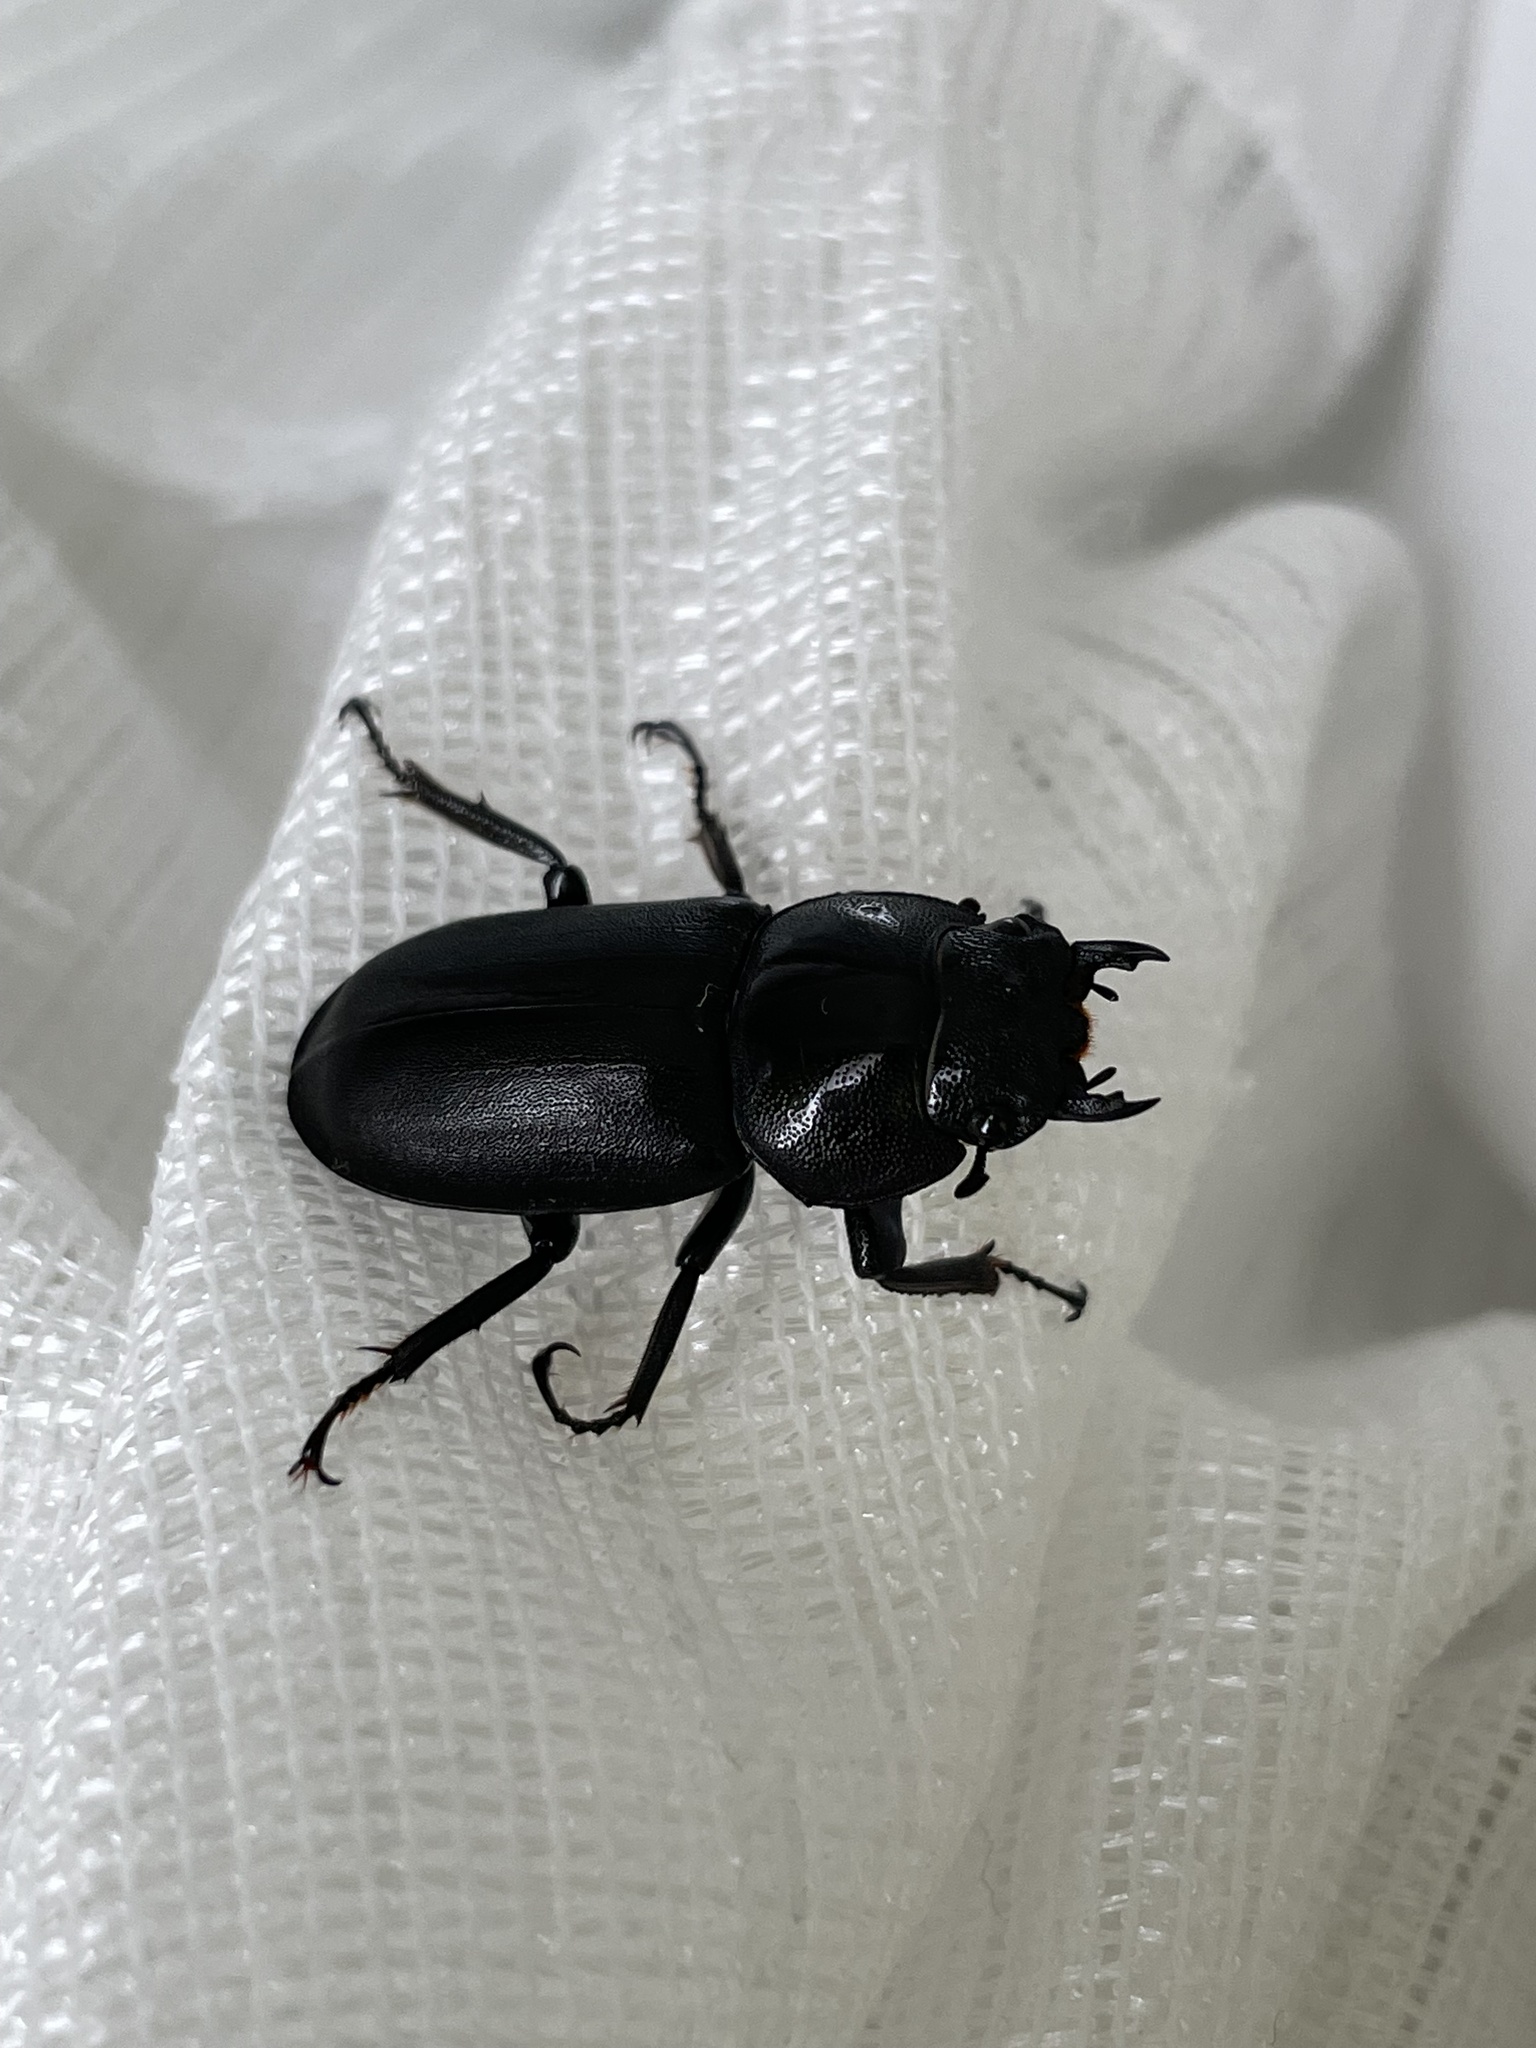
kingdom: Animalia
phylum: Arthropoda
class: Insecta
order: Coleoptera
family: Lucanidae
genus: Dorcus
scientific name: Dorcus rectus
